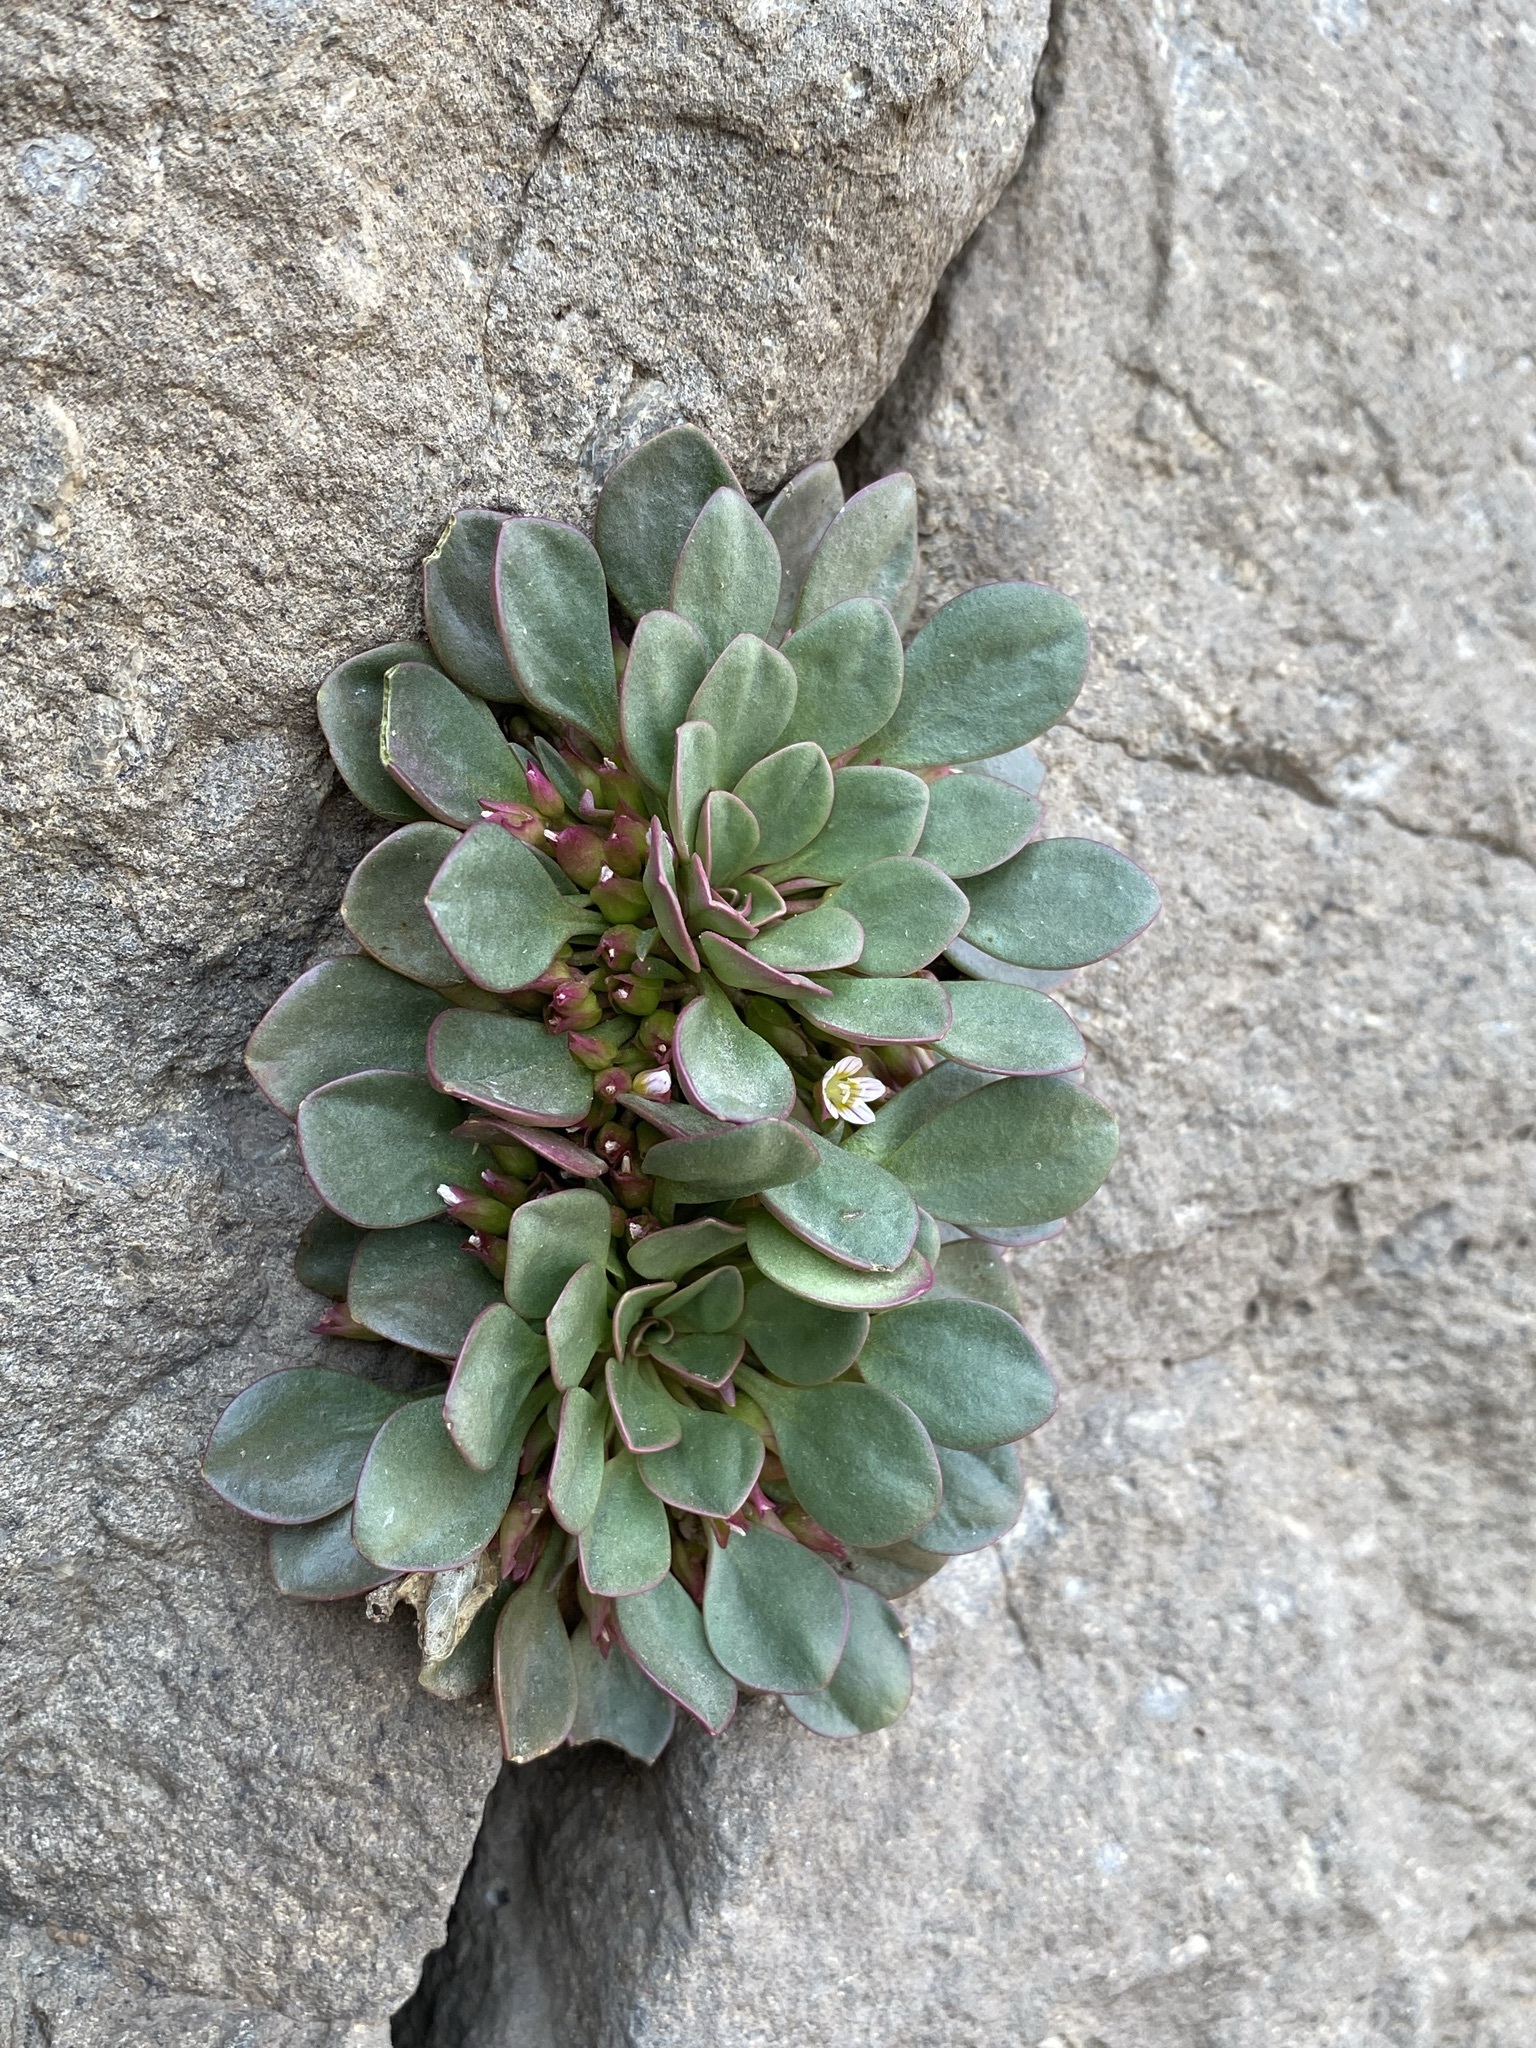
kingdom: Plantae
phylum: Tracheophyta
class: Magnoliopsida
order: Caryophyllales
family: Montiaceae
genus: Claytonia
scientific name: Claytonia megarhiza
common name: Alpine spring beauty
